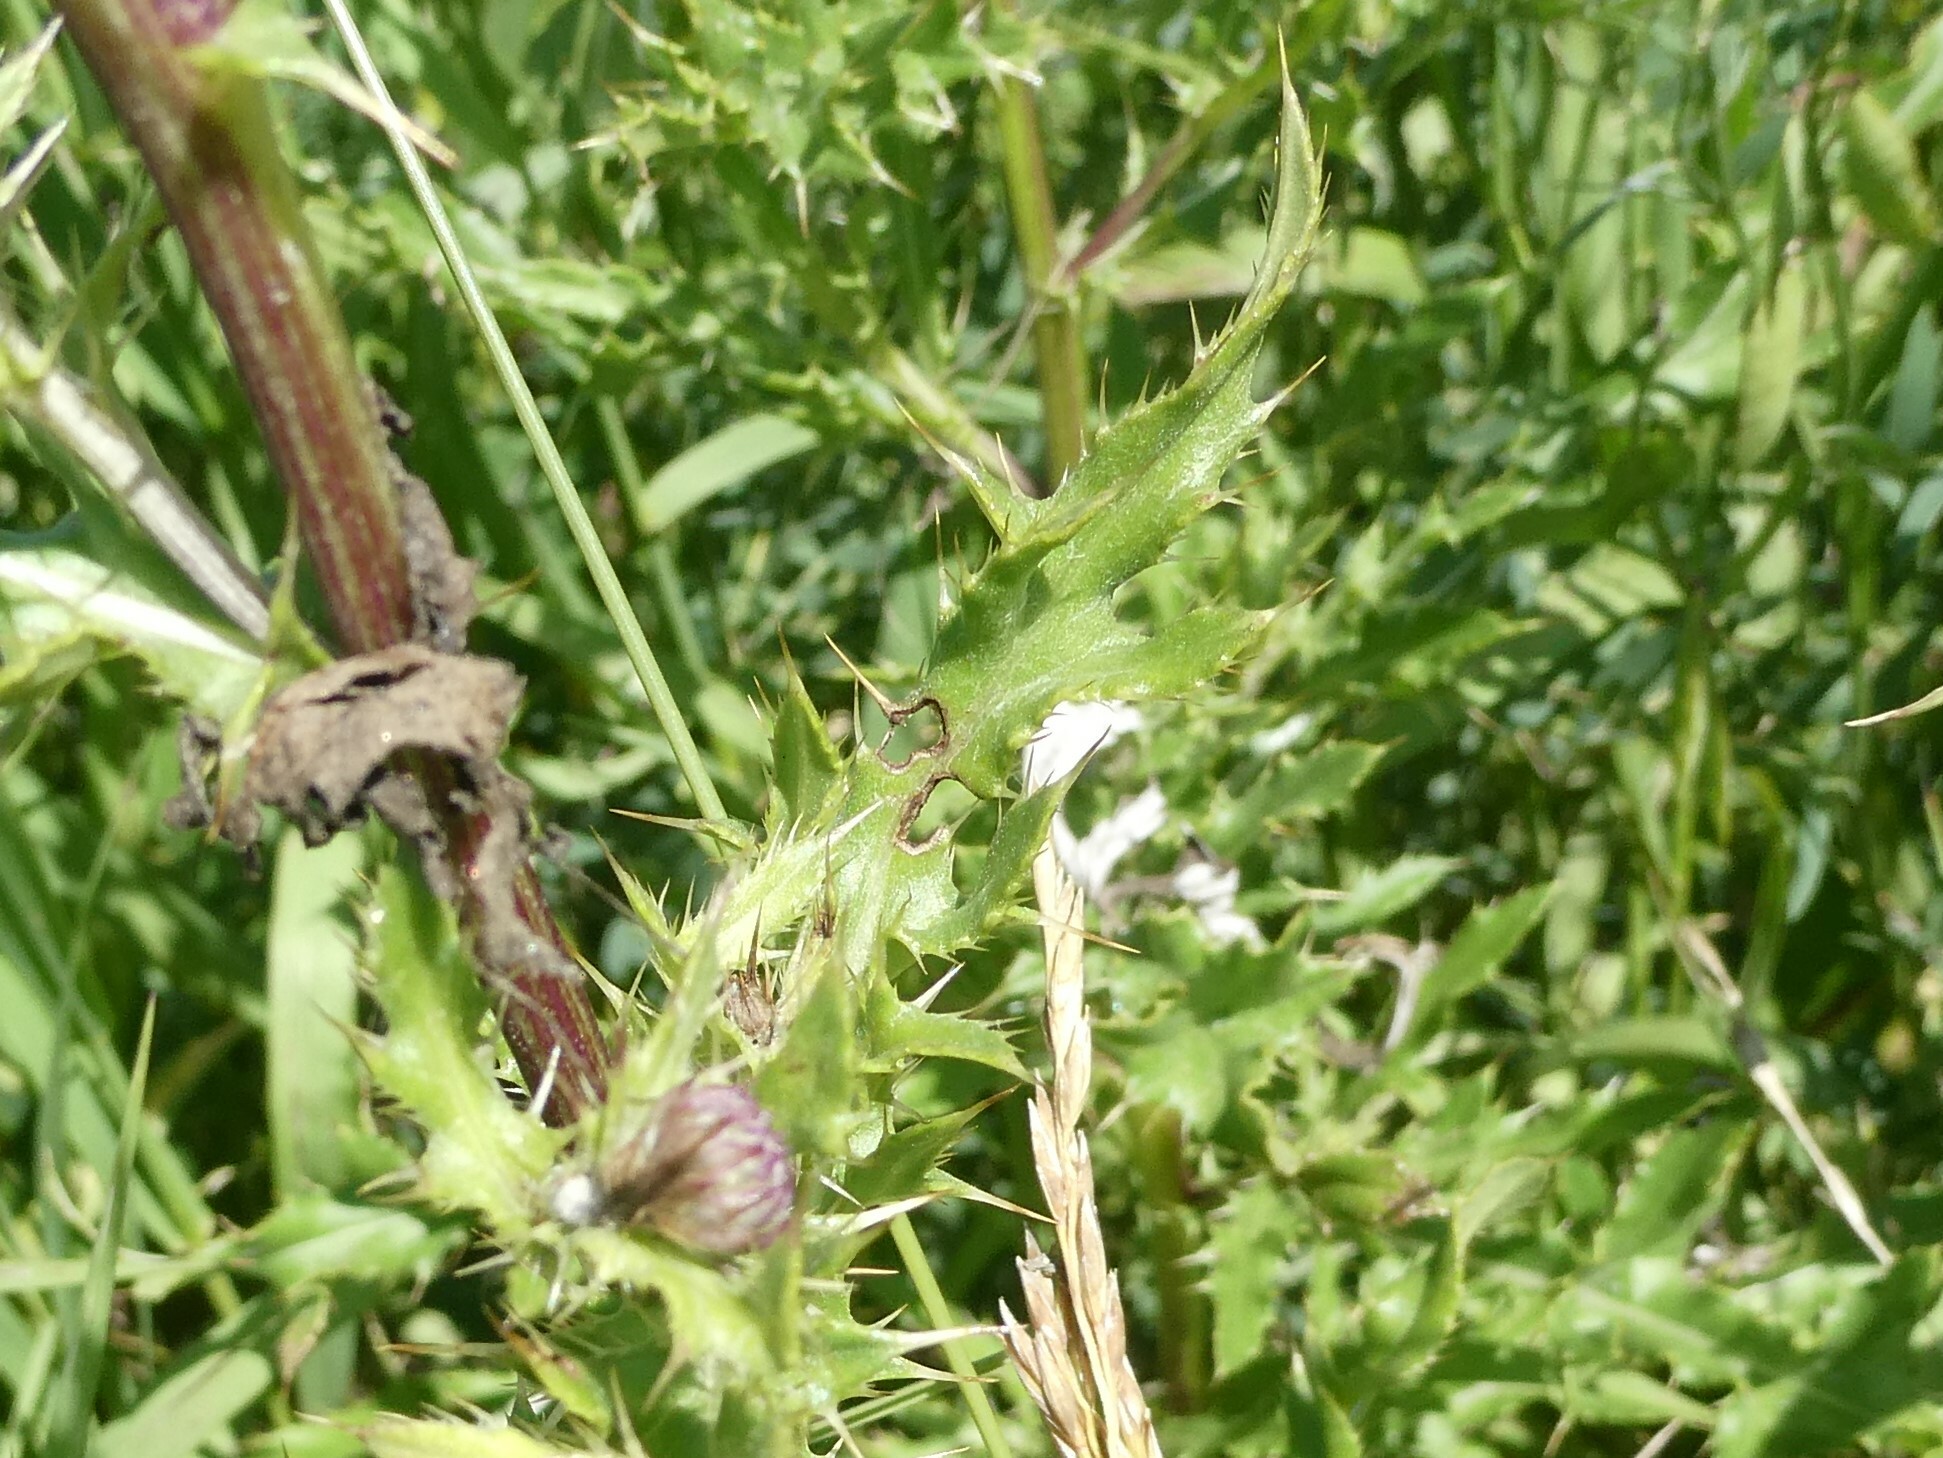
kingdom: Plantae
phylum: Tracheophyta
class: Magnoliopsida
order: Asterales
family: Asteraceae
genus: Cirsium
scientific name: Cirsium arvense
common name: Creeping thistle
